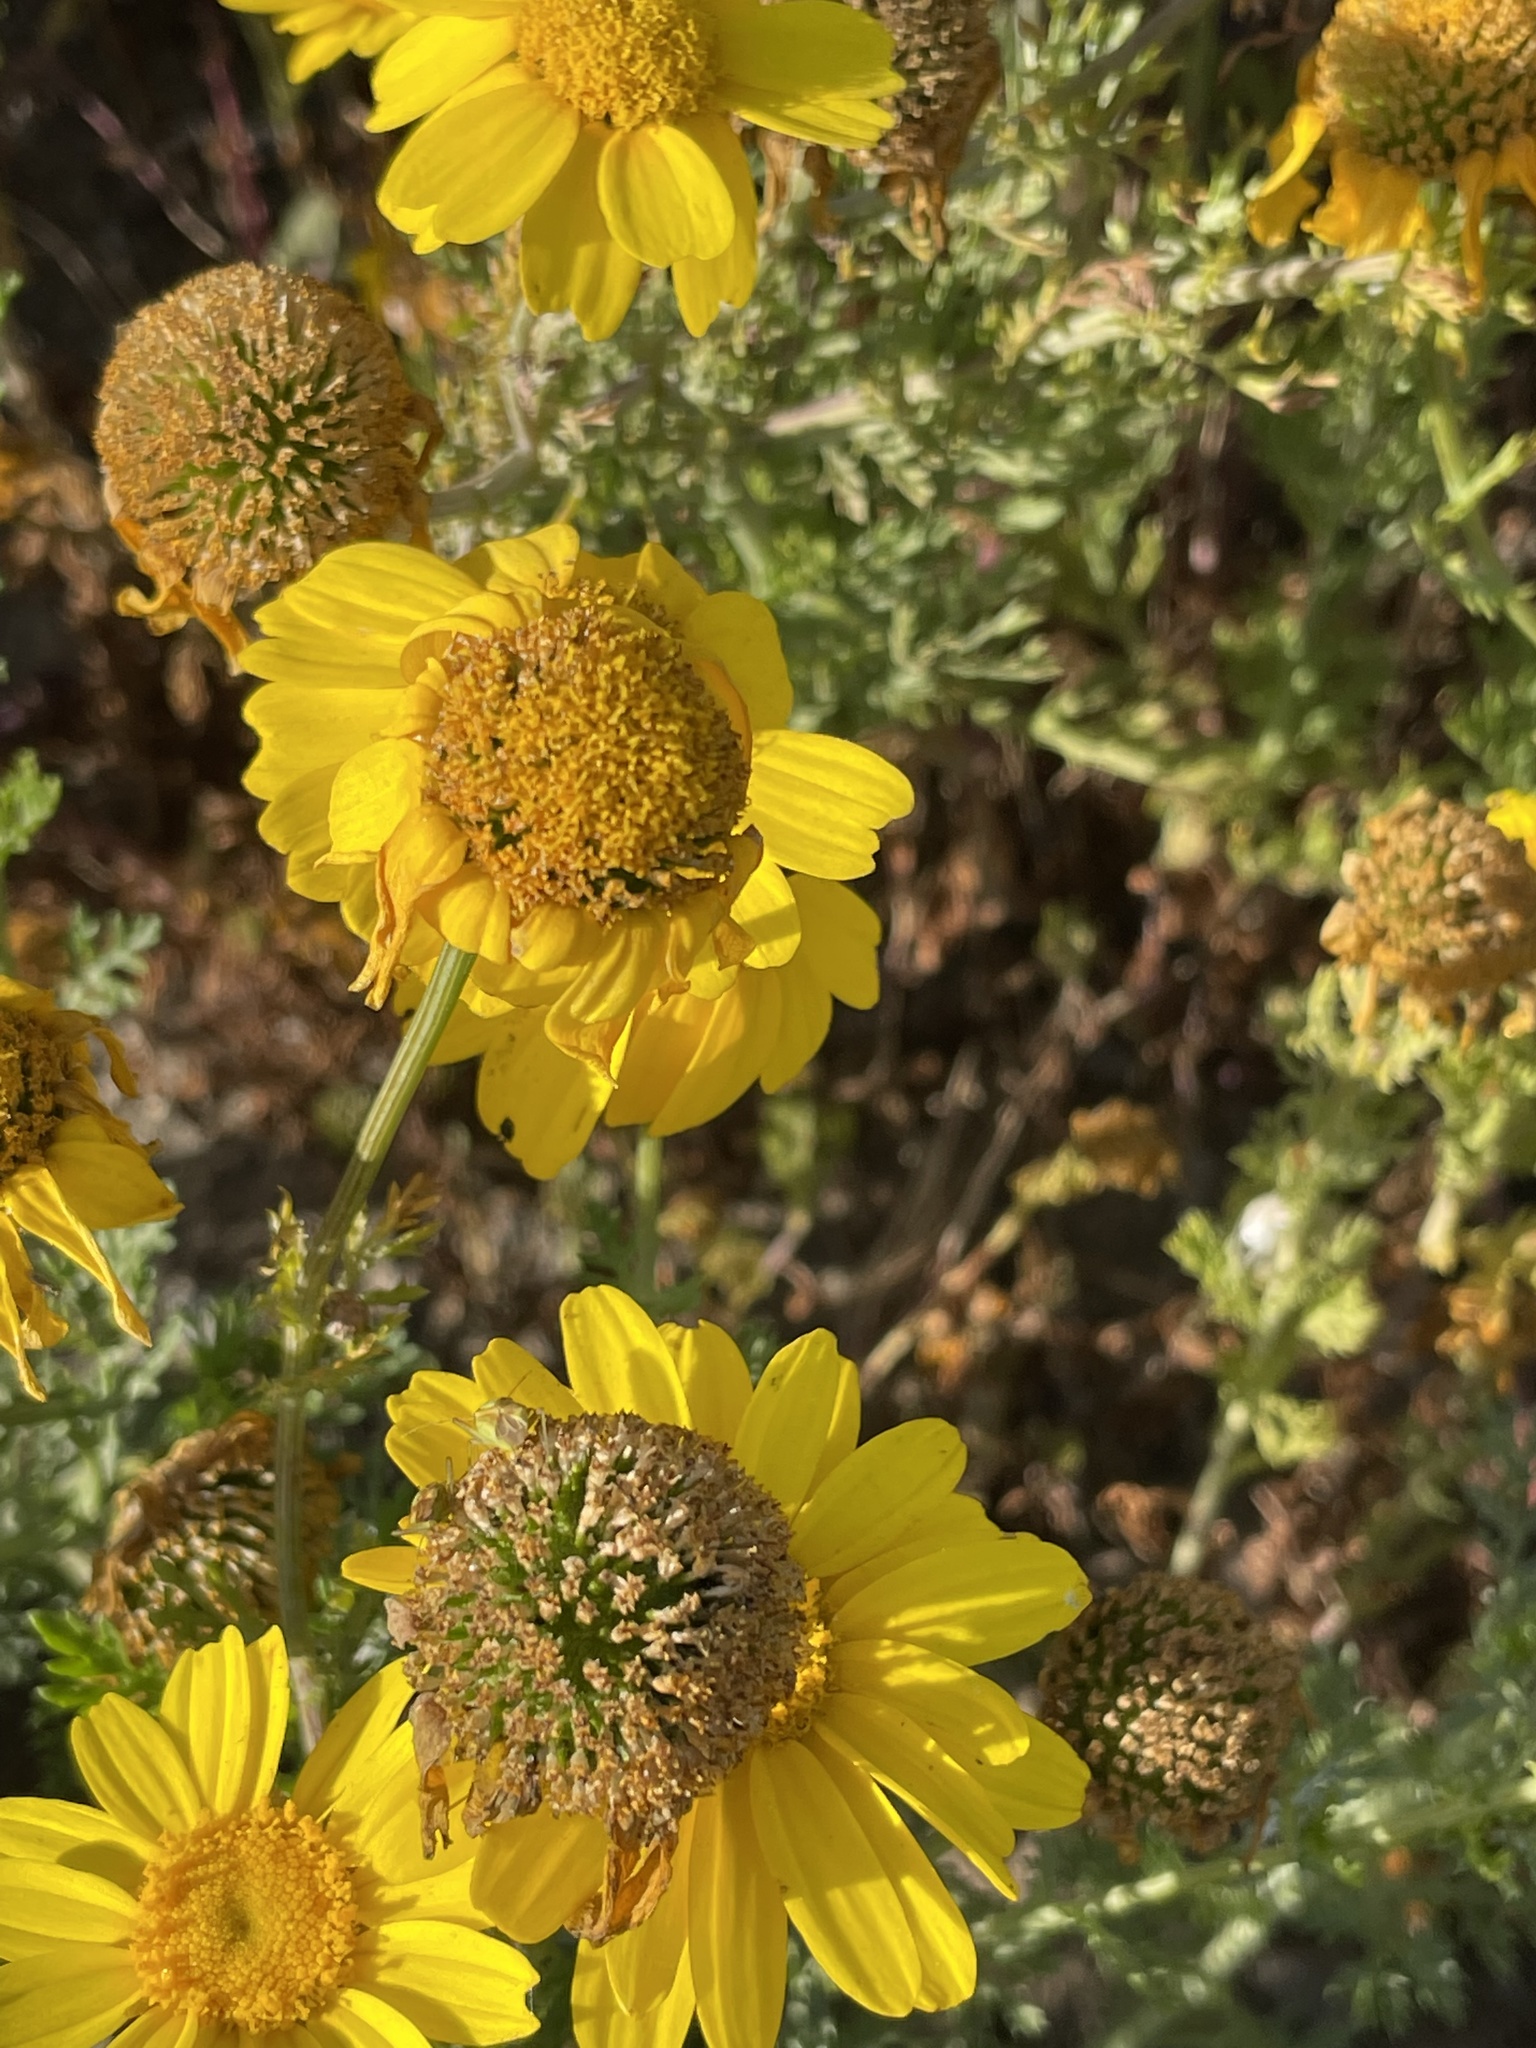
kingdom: Plantae
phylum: Tracheophyta
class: Magnoliopsida
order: Asterales
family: Asteraceae
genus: Glebionis
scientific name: Glebionis coronaria
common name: Crowndaisy
